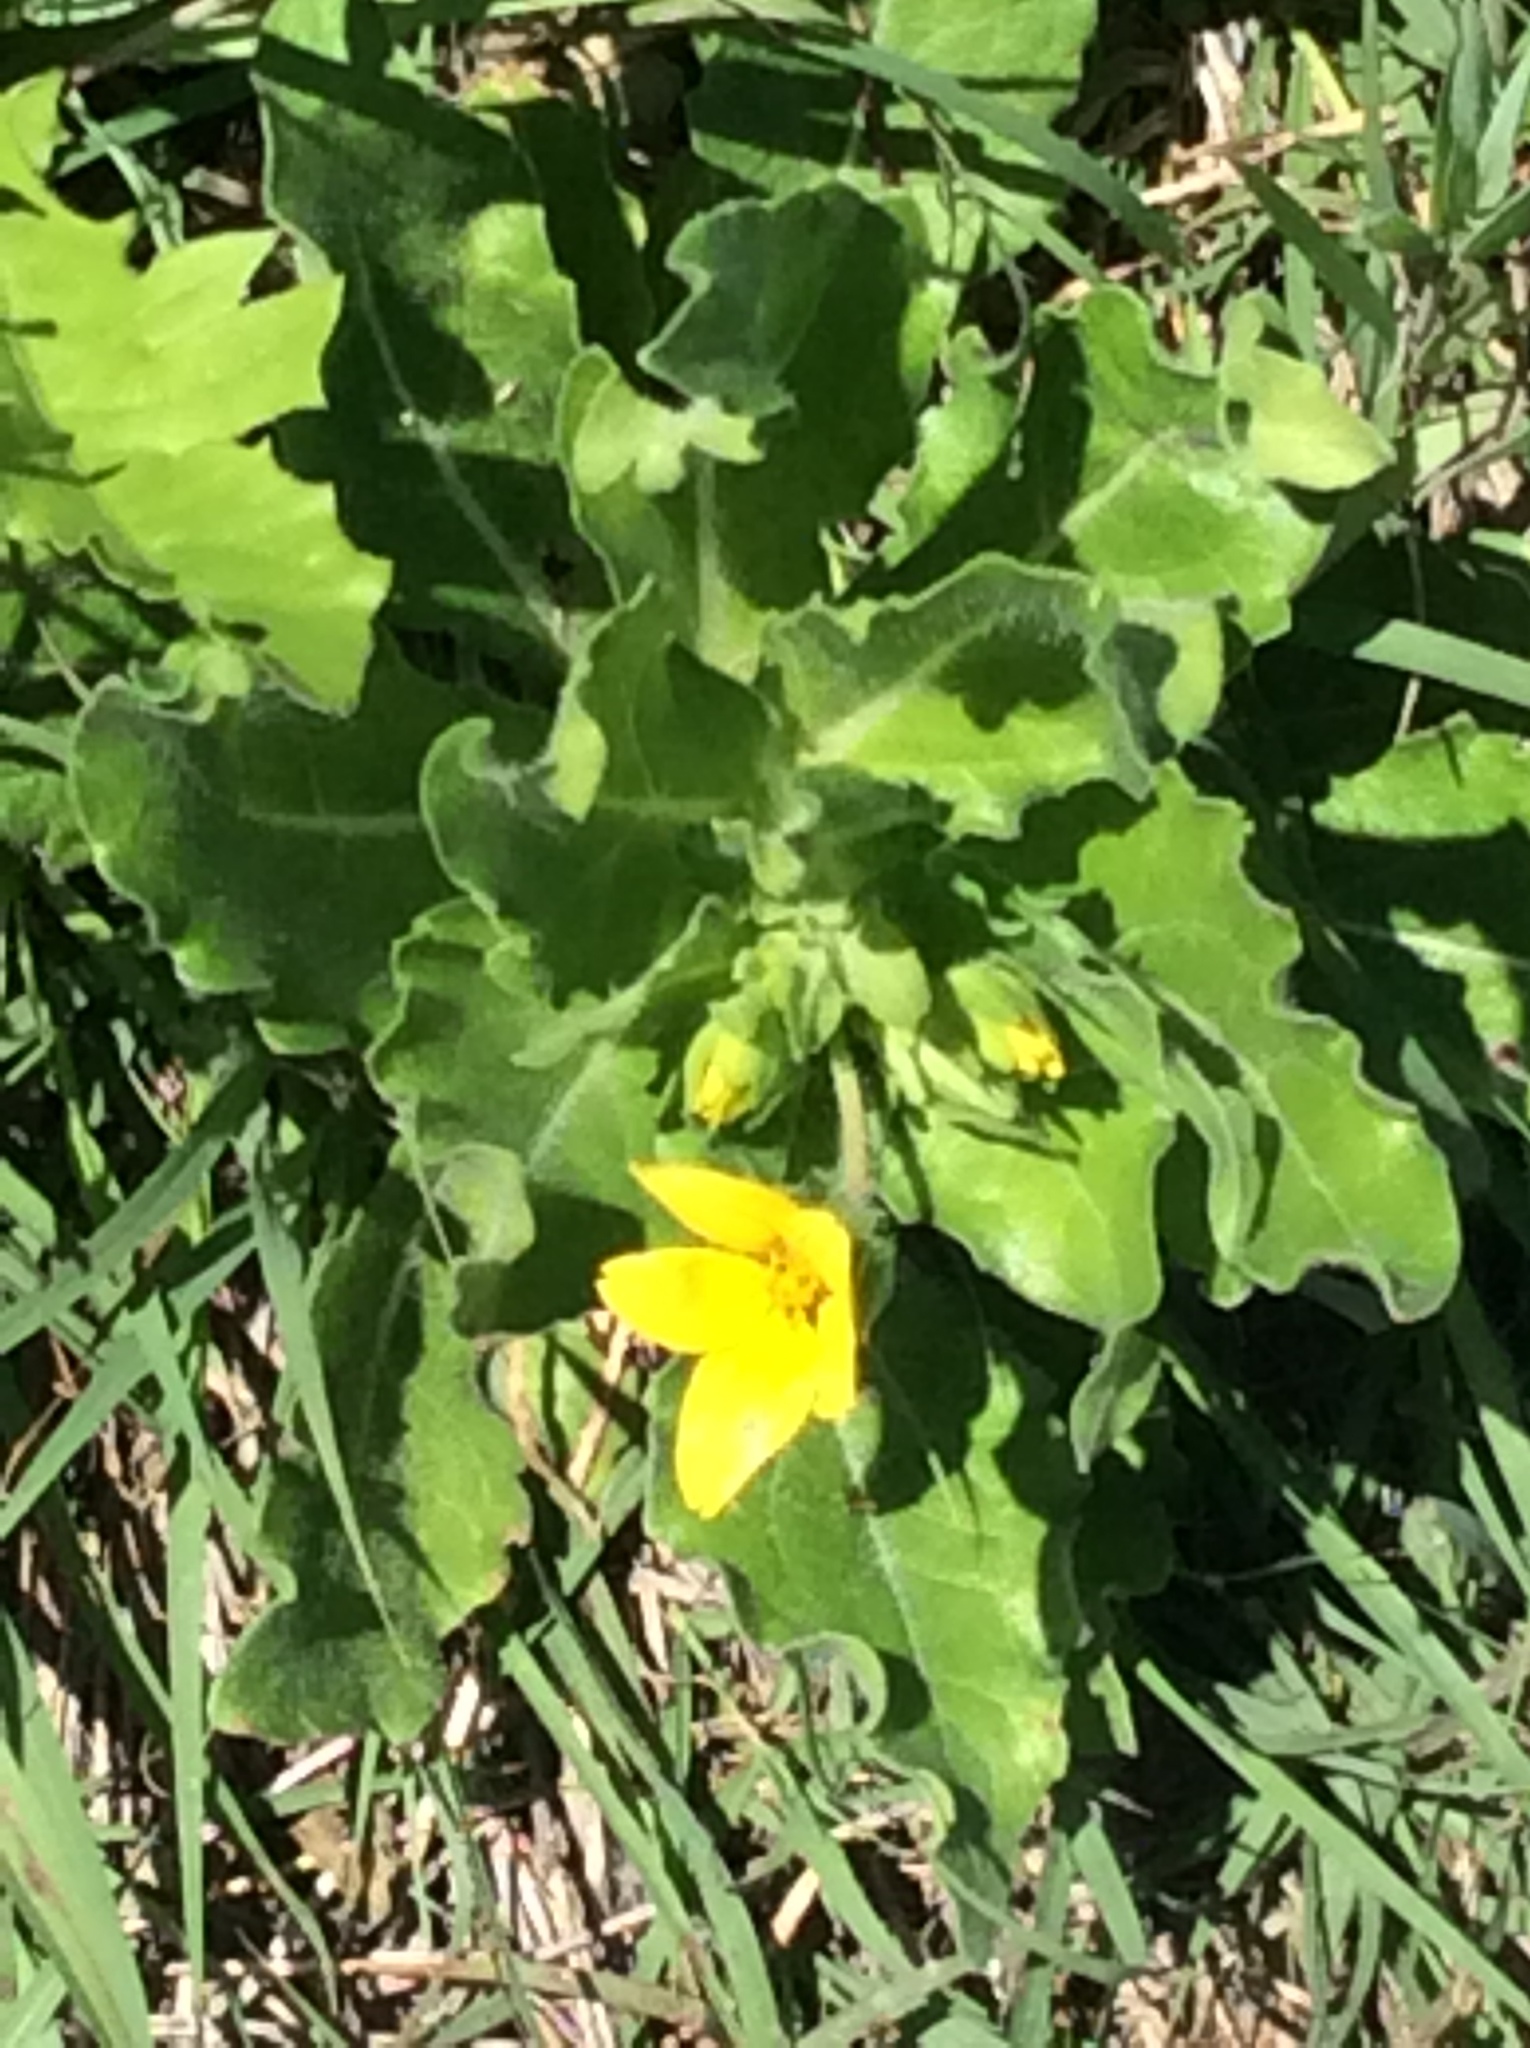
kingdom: Plantae
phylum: Tracheophyta
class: Magnoliopsida
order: Asterales
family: Asteraceae
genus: Lindheimera
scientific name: Lindheimera texana
